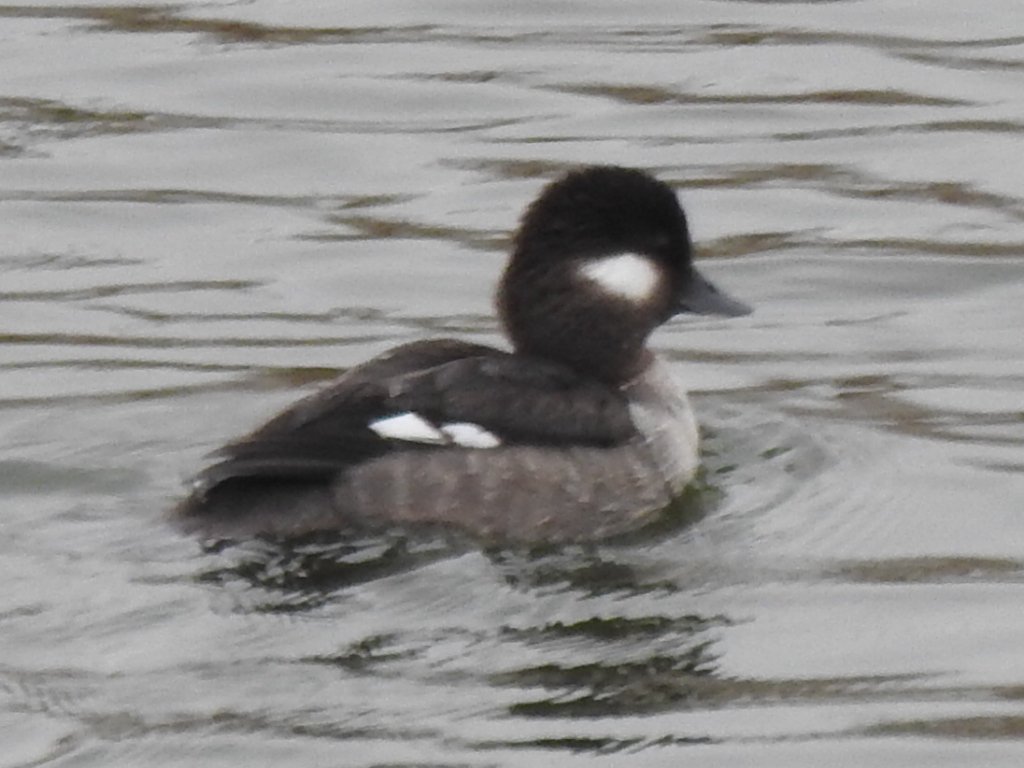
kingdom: Animalia
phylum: Chordata
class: Aves
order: Anseriformes
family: Anatidae
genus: Bucephala
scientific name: Bucephala albeola
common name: Bufflehead
